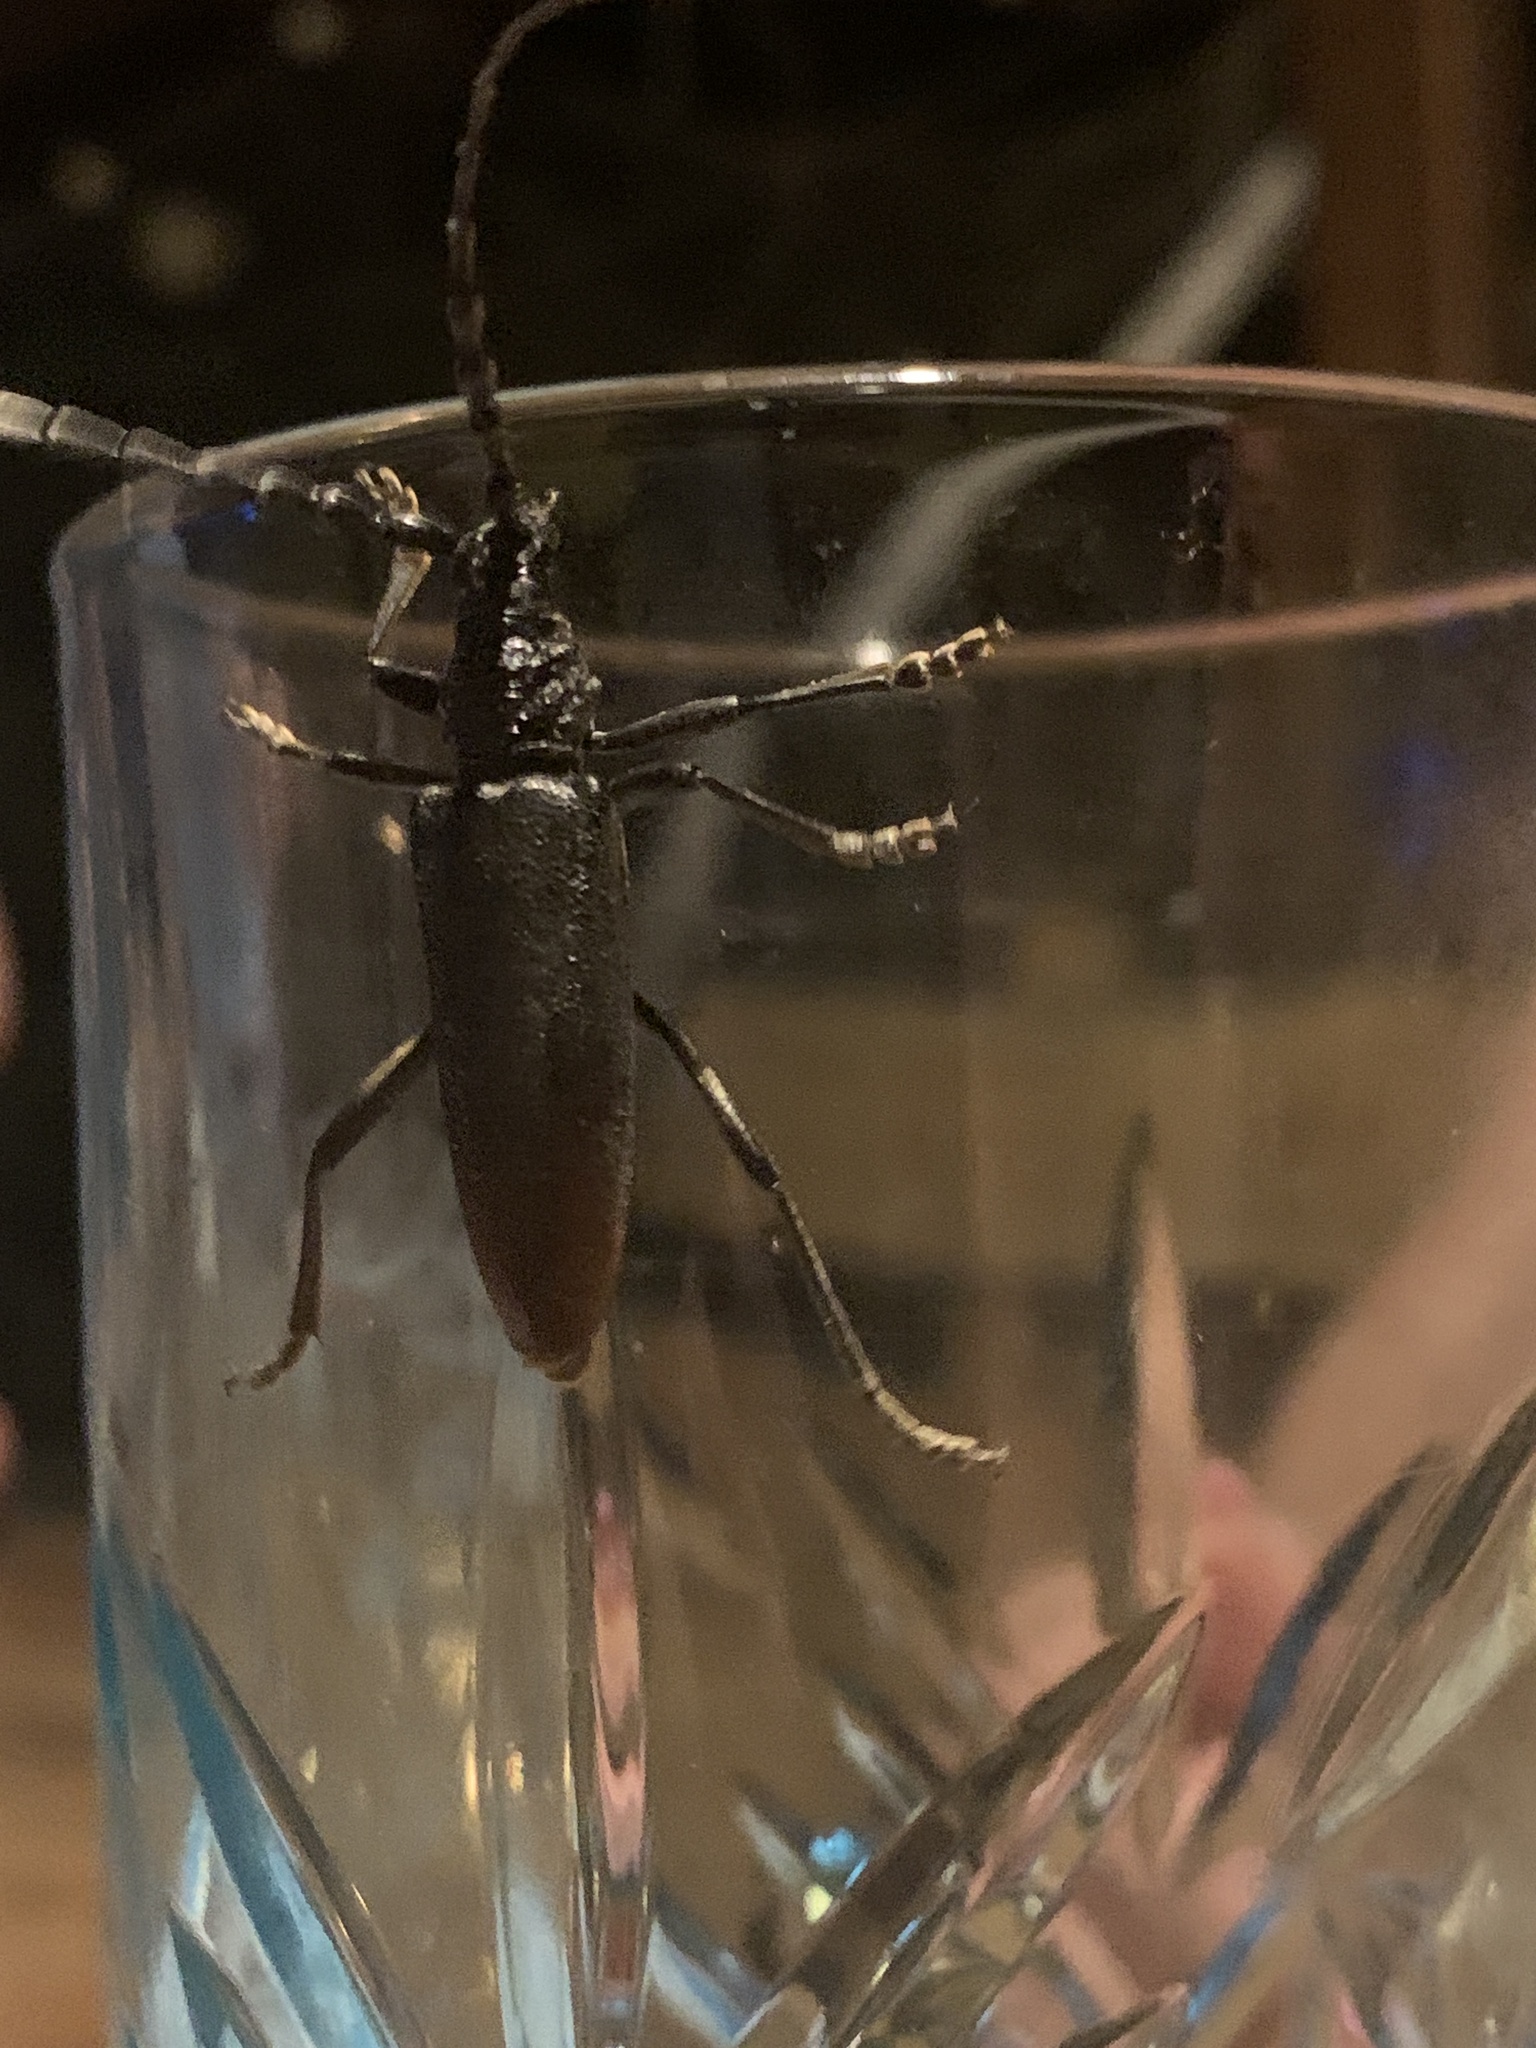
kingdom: Animalia
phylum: Arthropoda
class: Insecta
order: Coleoptera
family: Cerambycidae
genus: Cerambyx
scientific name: Cerambyx miles
